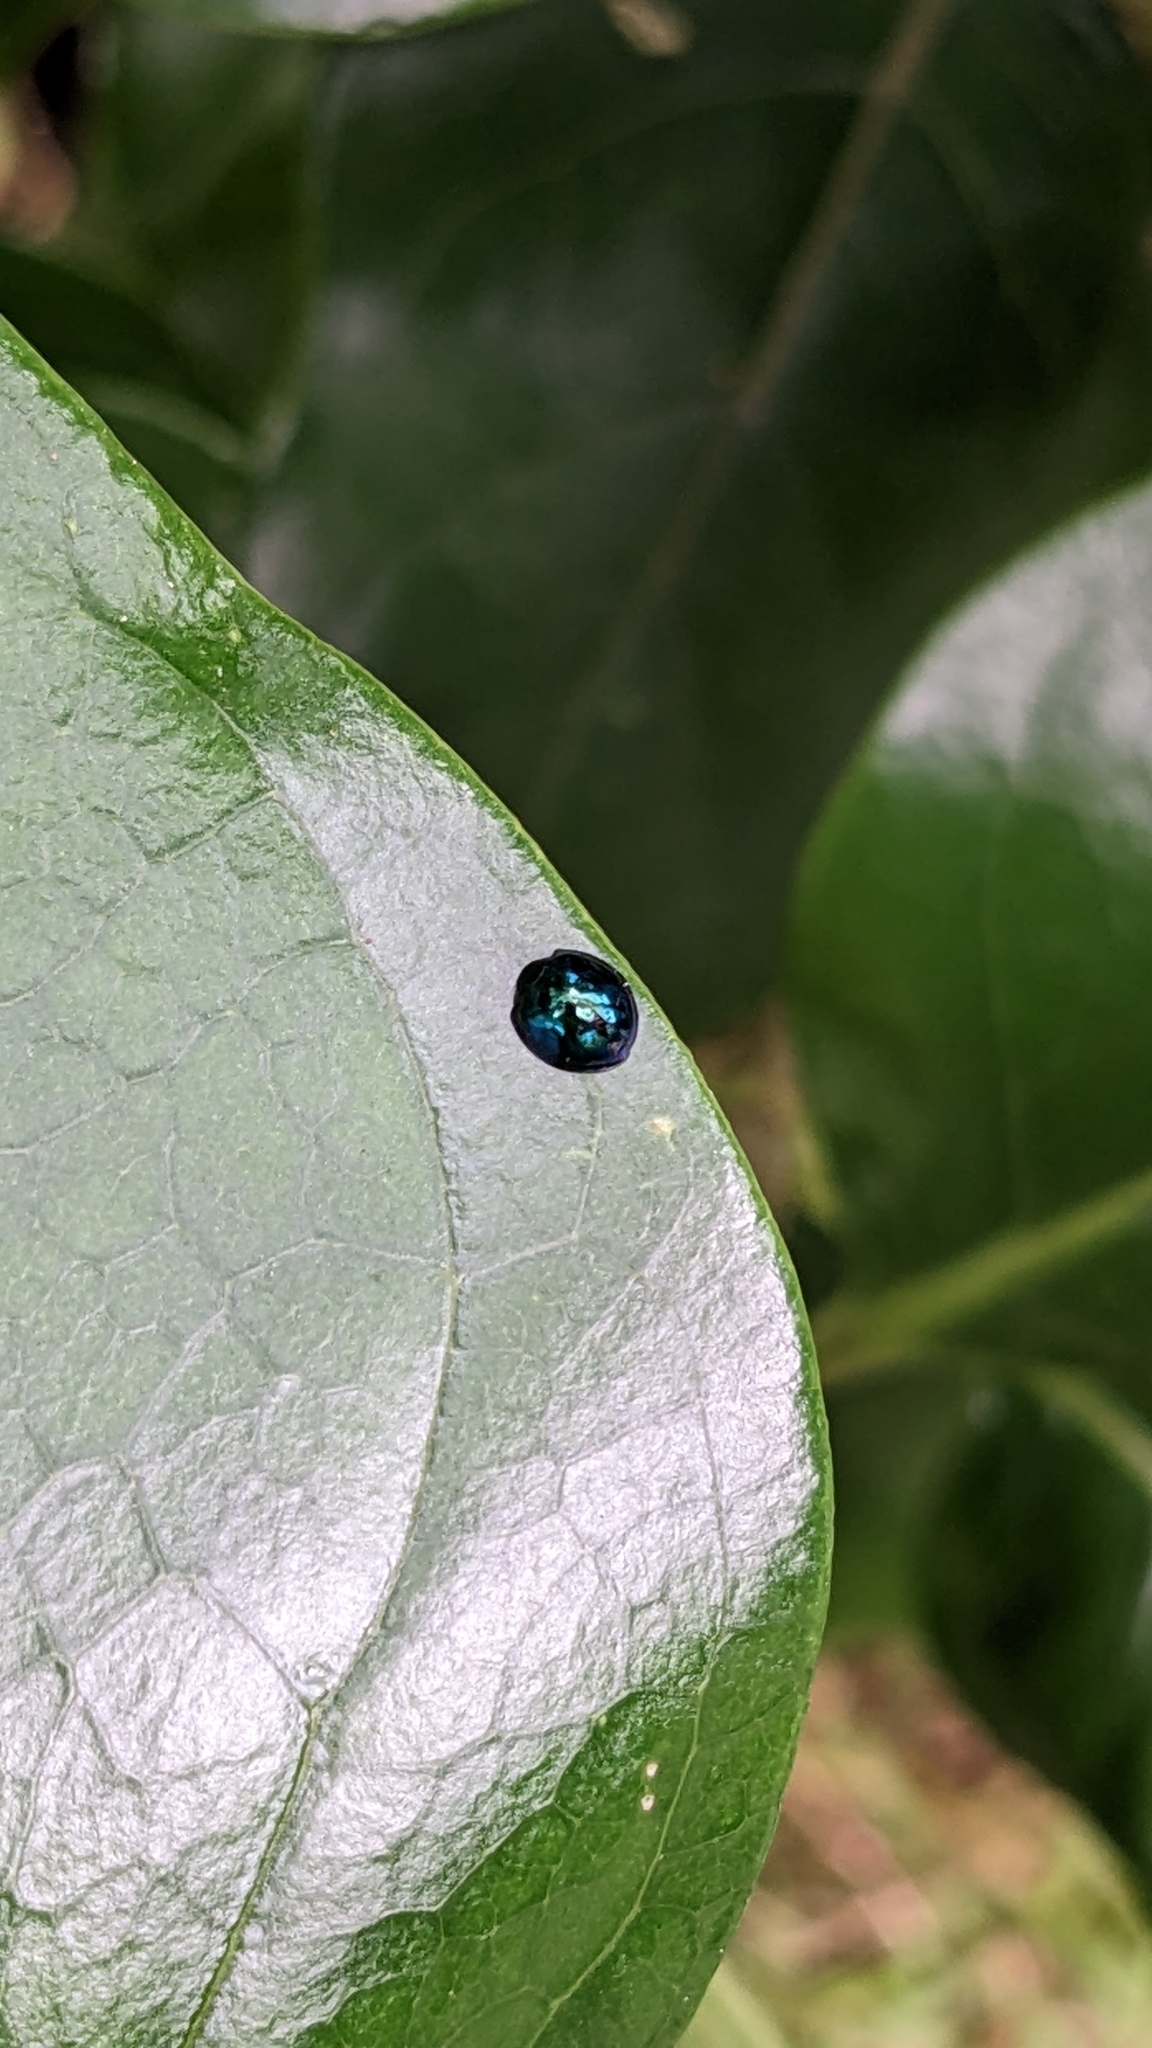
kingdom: Animalia
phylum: Arthropoda
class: Insecta
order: Coleoptera
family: Coccinellidae
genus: Halmus
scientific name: Halmus chalybeus
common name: Steel blue ladybird beetle
